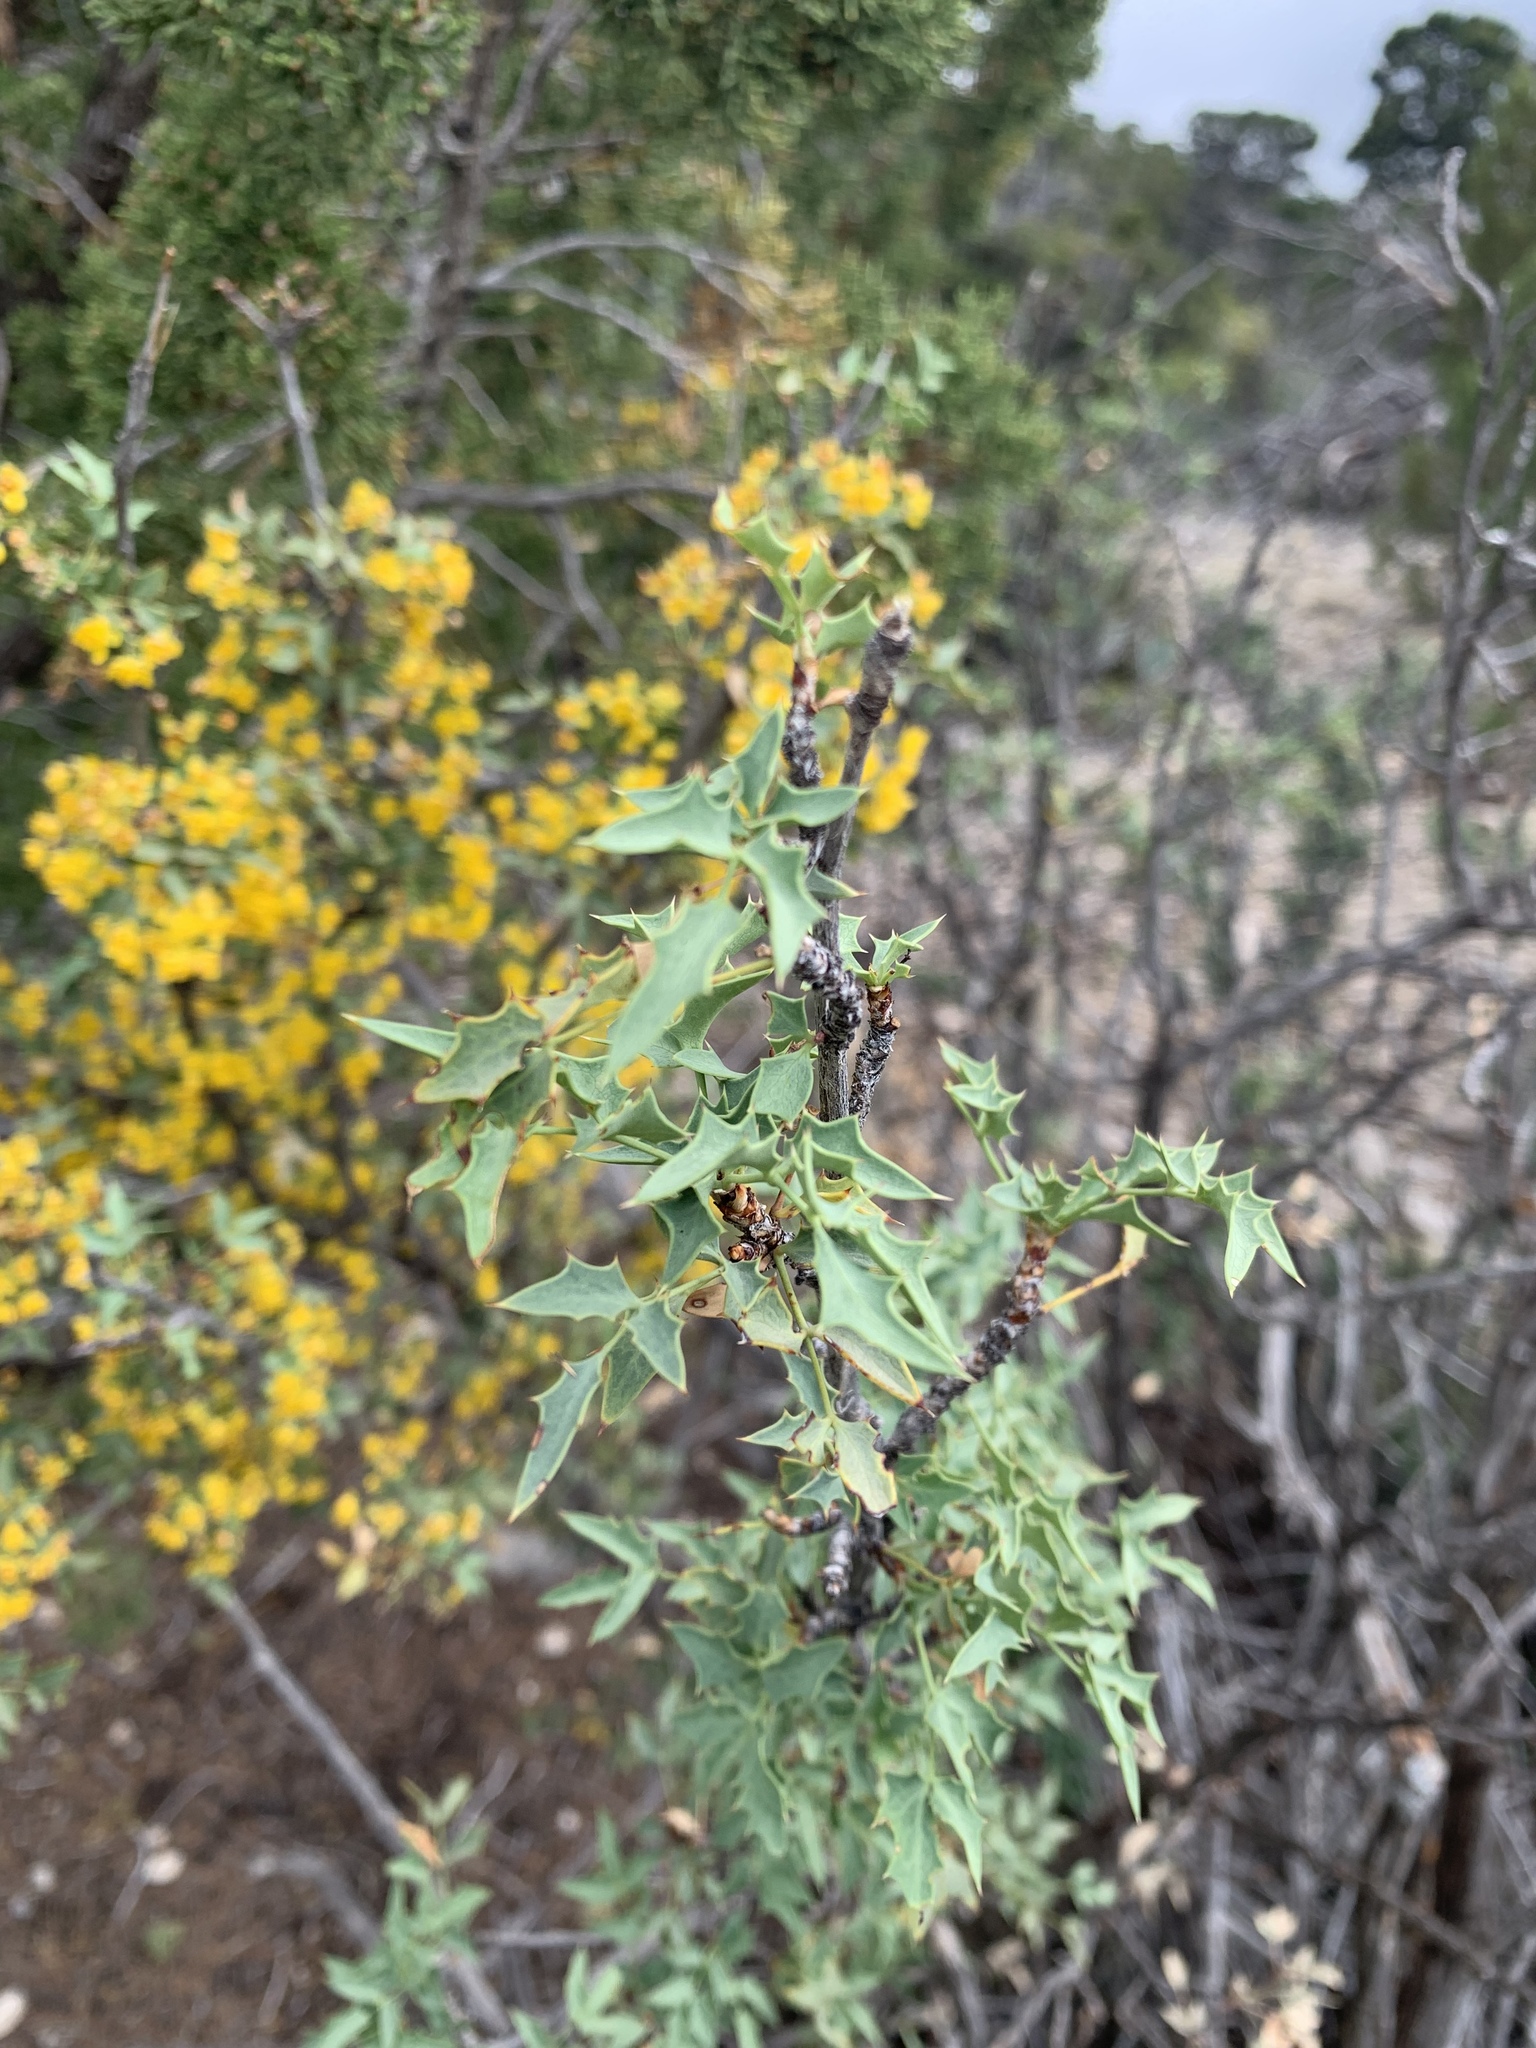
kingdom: Plantae
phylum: Tracheophyta
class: Magnoliopsida
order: Ranunculales
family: Berberidaceae
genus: Alloberberis
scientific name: Alloberberis haematocarpa
